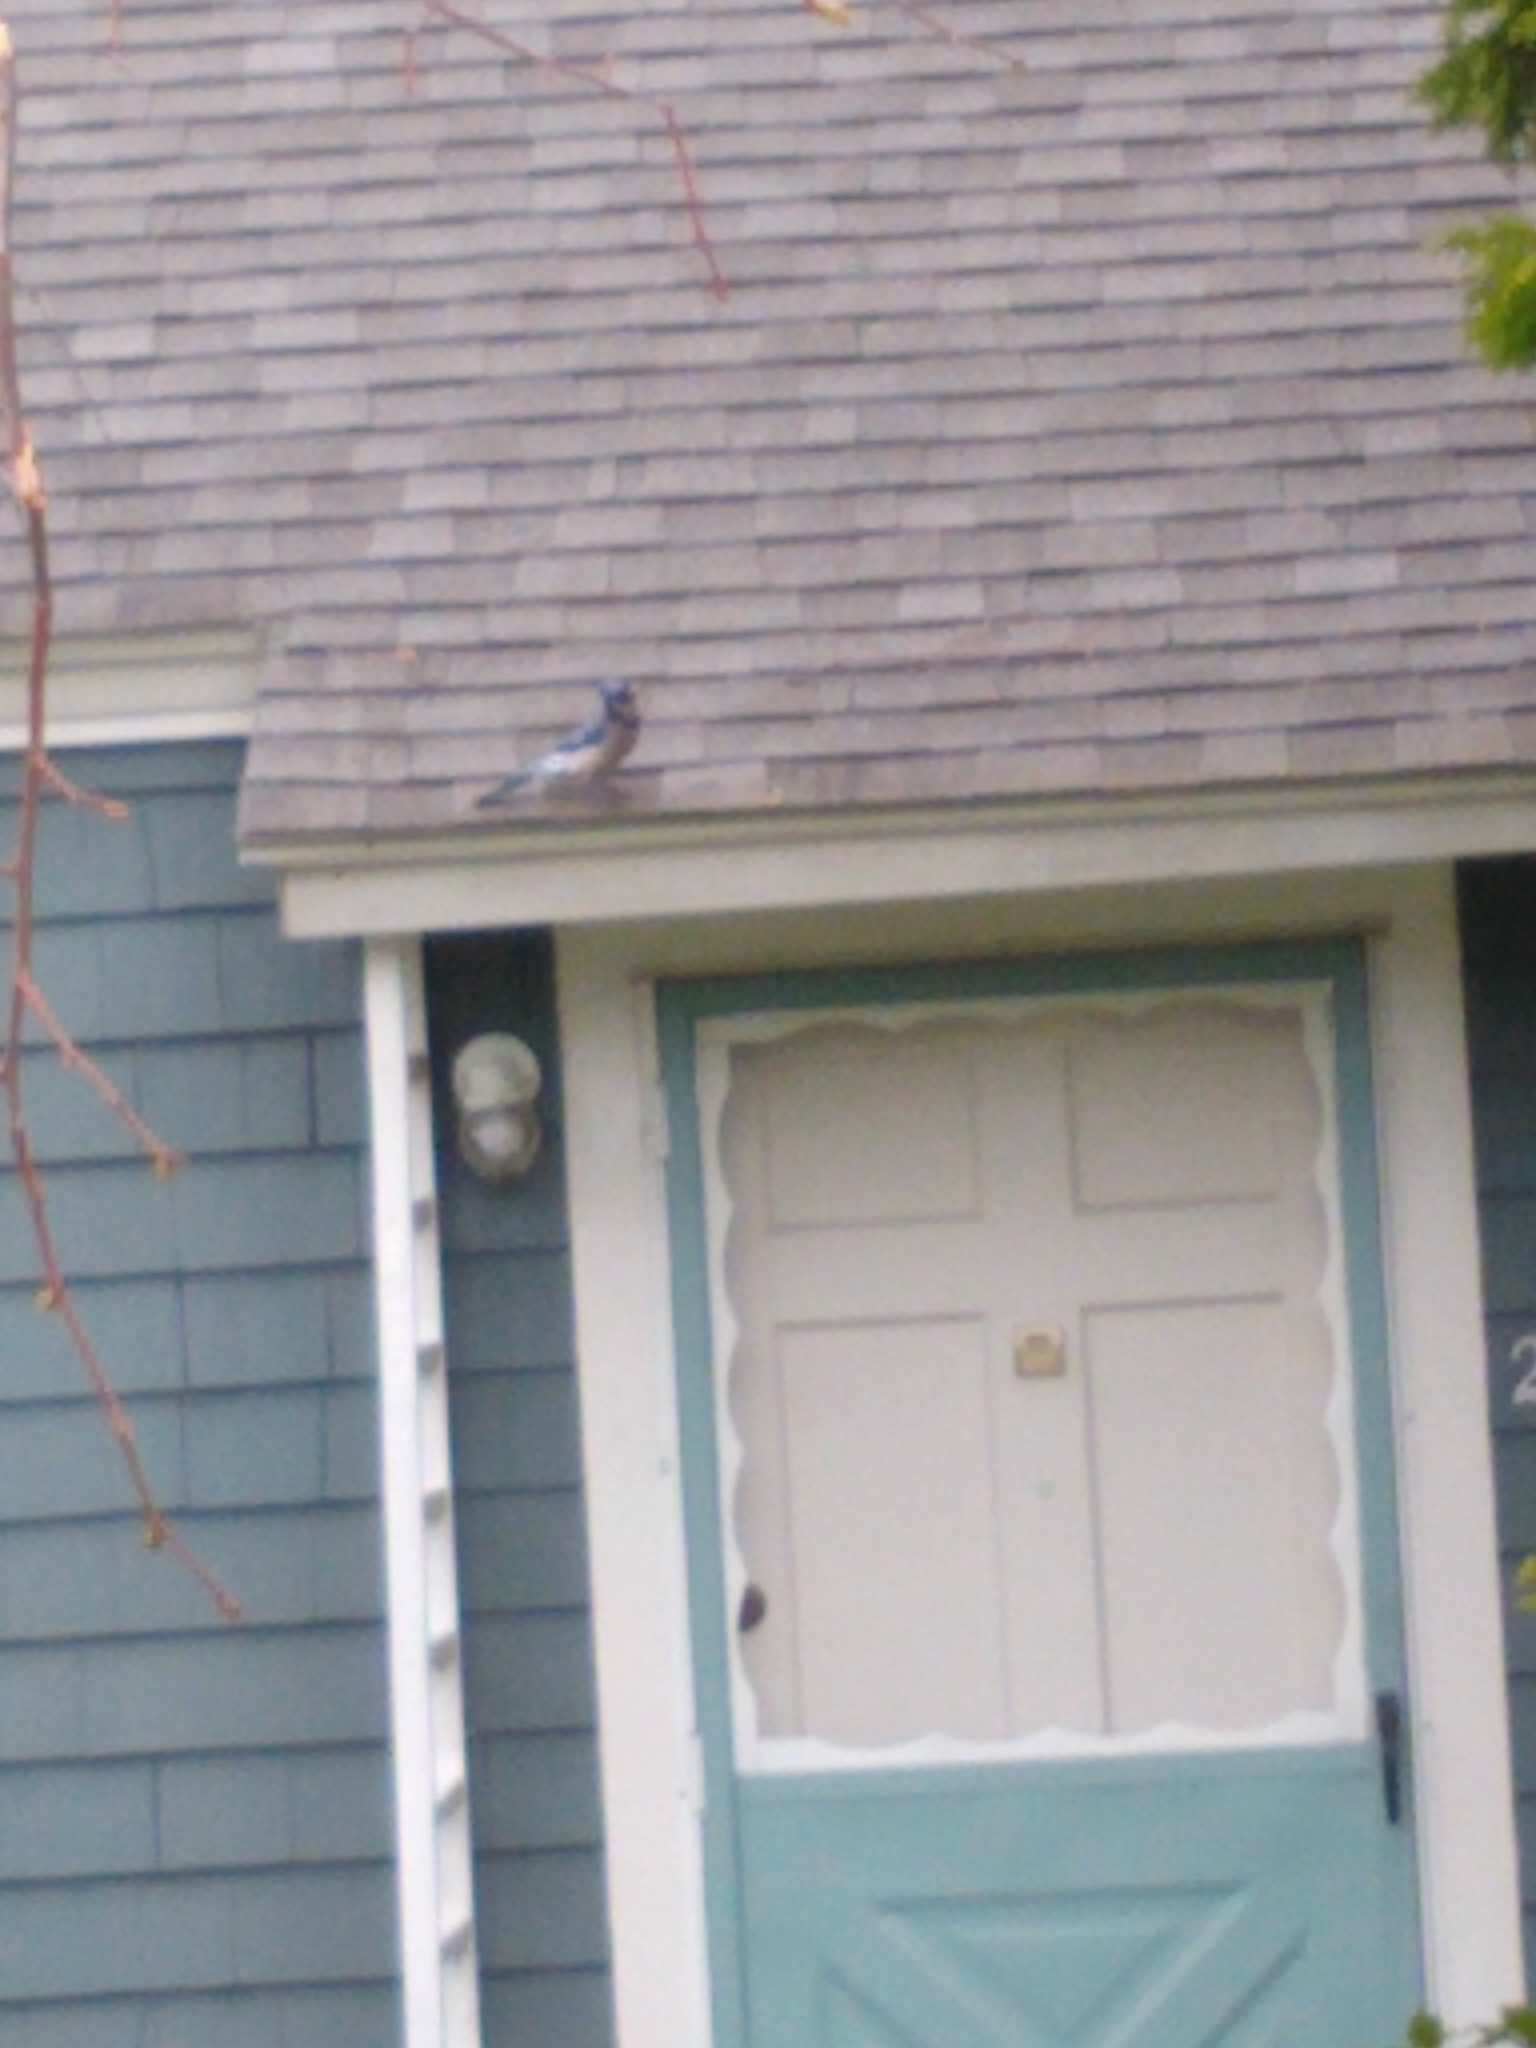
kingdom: Animalia
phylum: Chordata
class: Aves
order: Passeriformes
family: Corvidae
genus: Cyanocitta
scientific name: Cyanocitta cristata
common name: Blue jay
